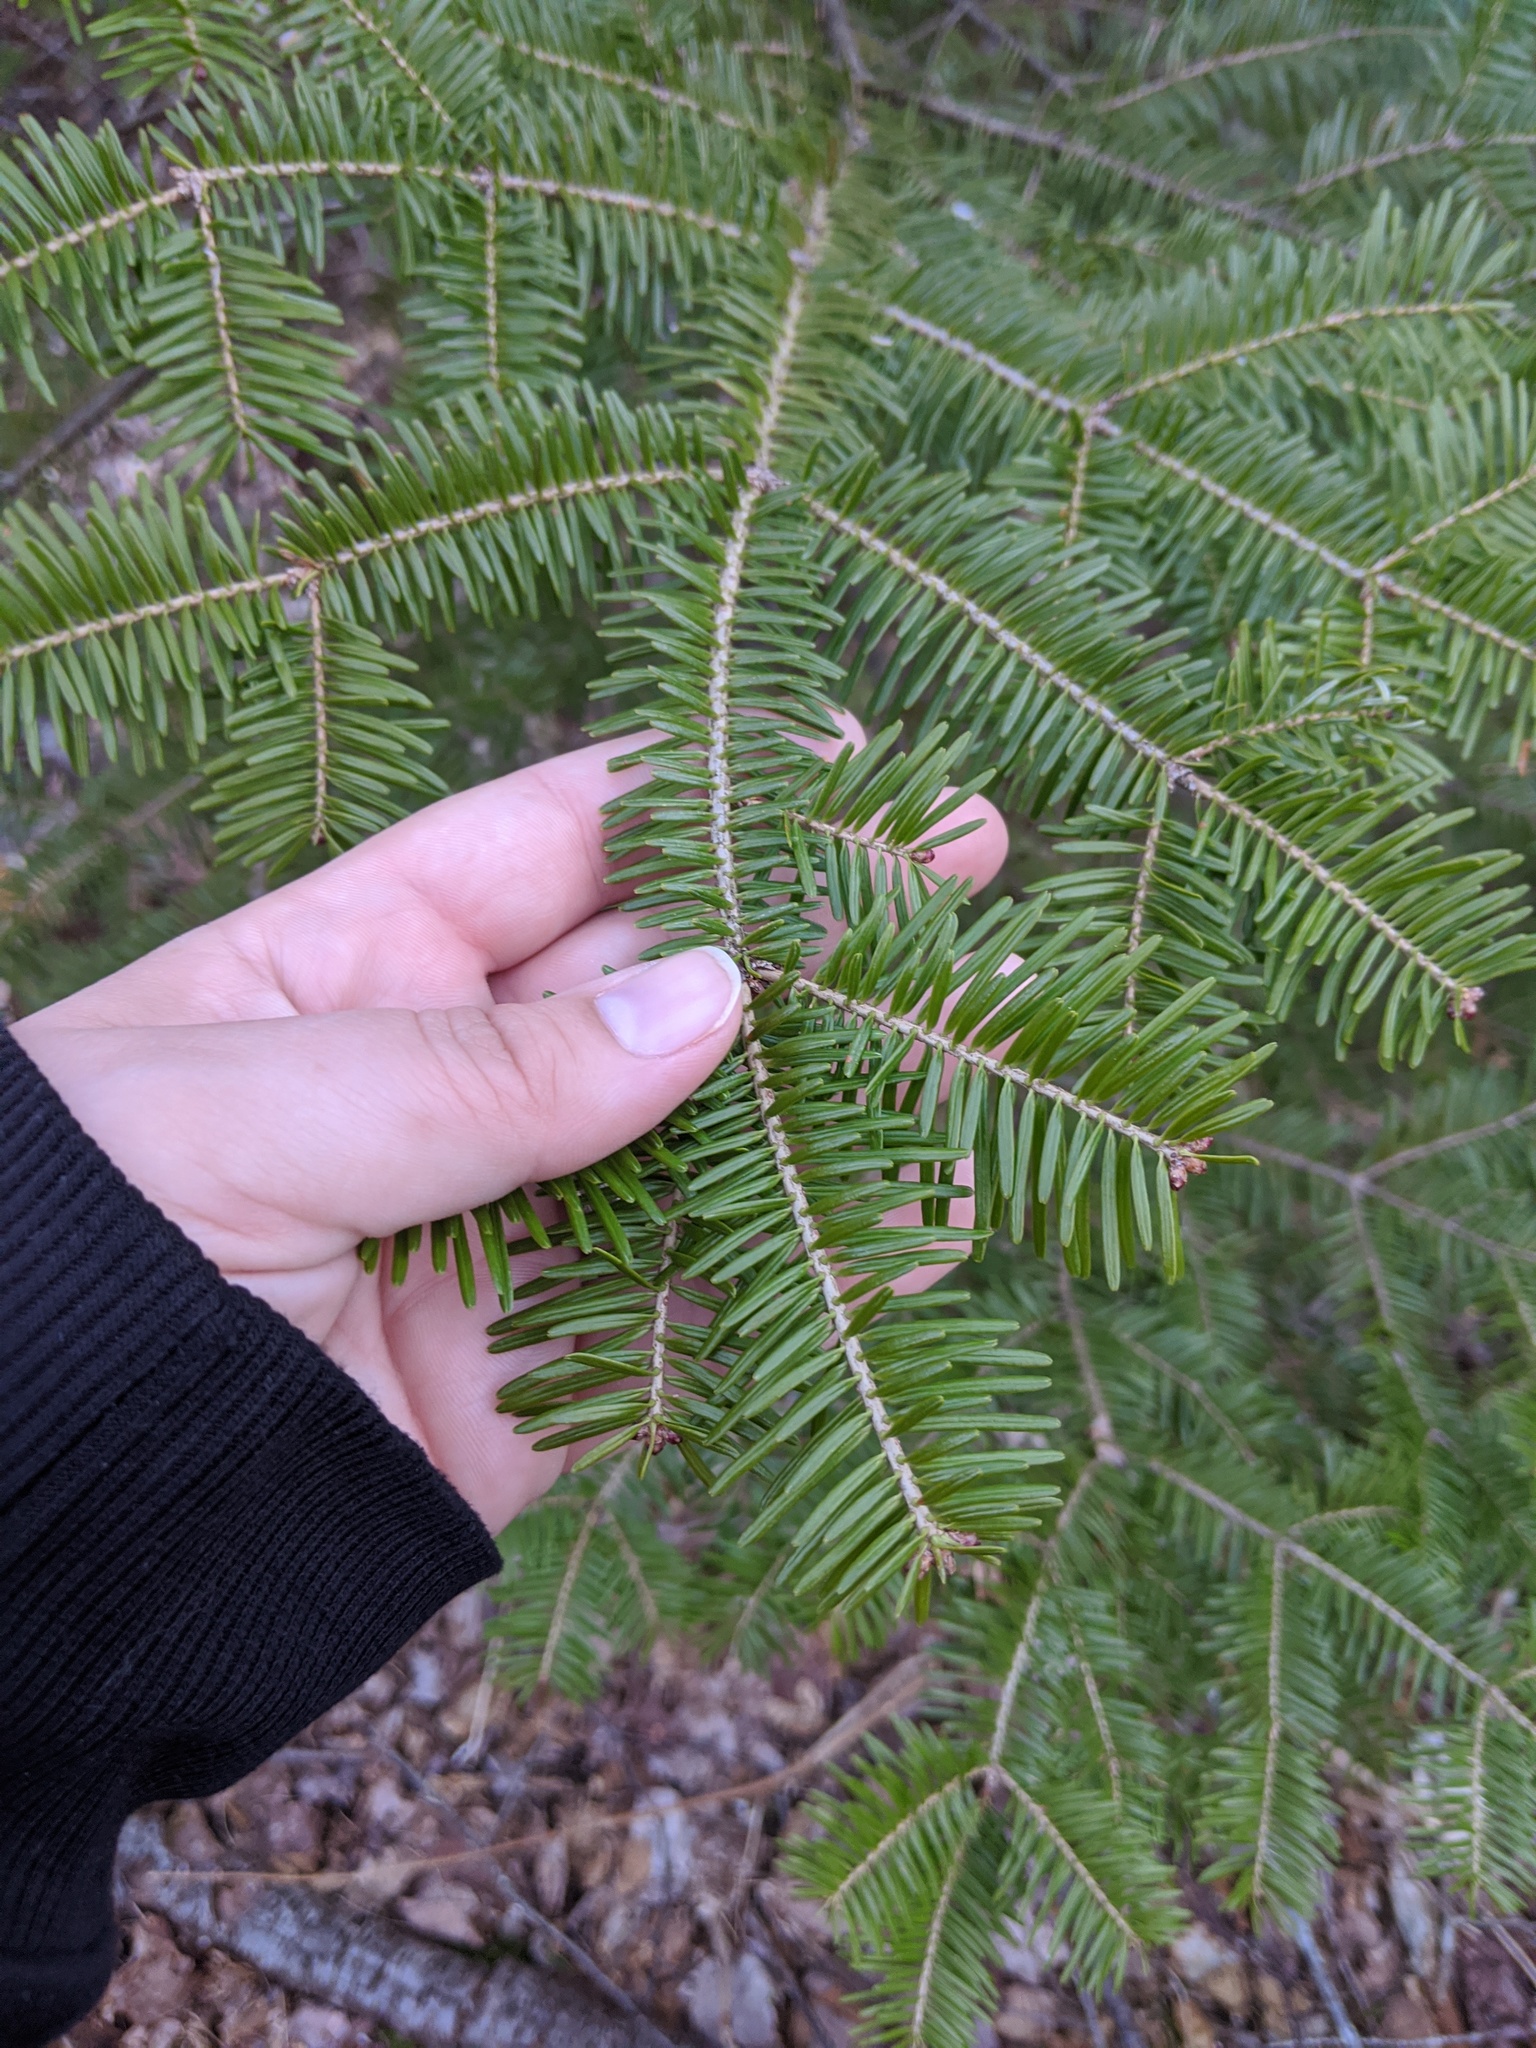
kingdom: Plantae
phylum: Tracheophyta
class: Pinopsida
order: Pinales
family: Pinaceae
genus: Abies
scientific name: Abies balsamea
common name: Balsam fir
